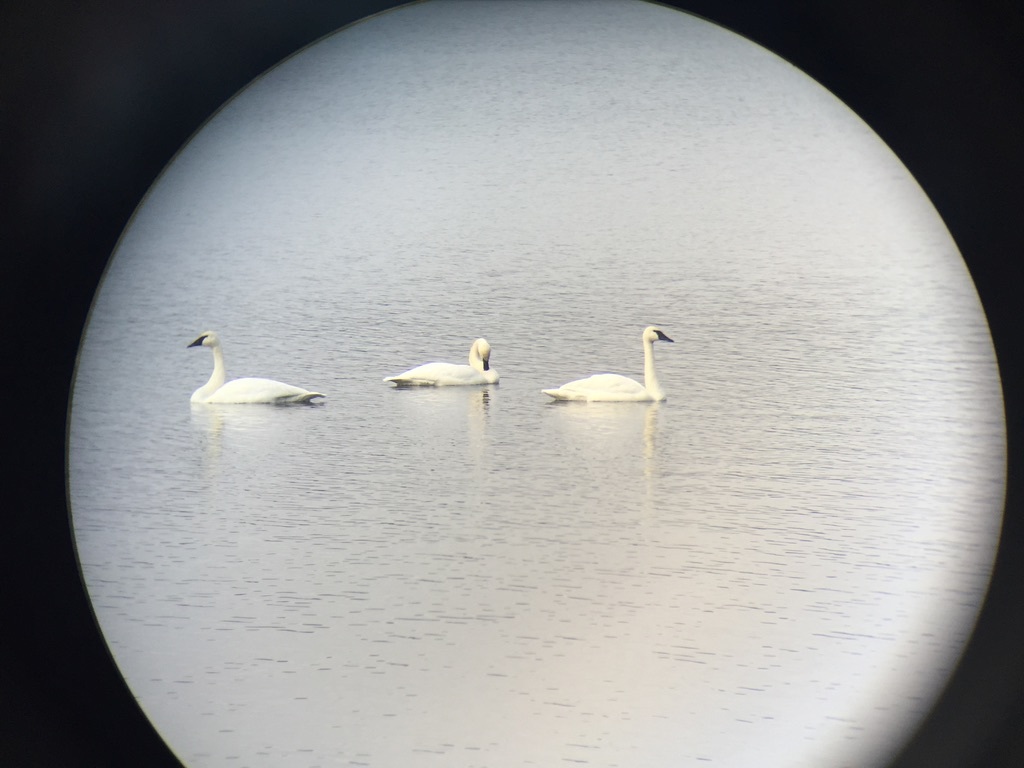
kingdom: Animalia
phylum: Chordata
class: Aves
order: Anseriformes
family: Anatidae
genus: Cygnus
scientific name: Cygnus buccinator
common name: Trumpeter swan
